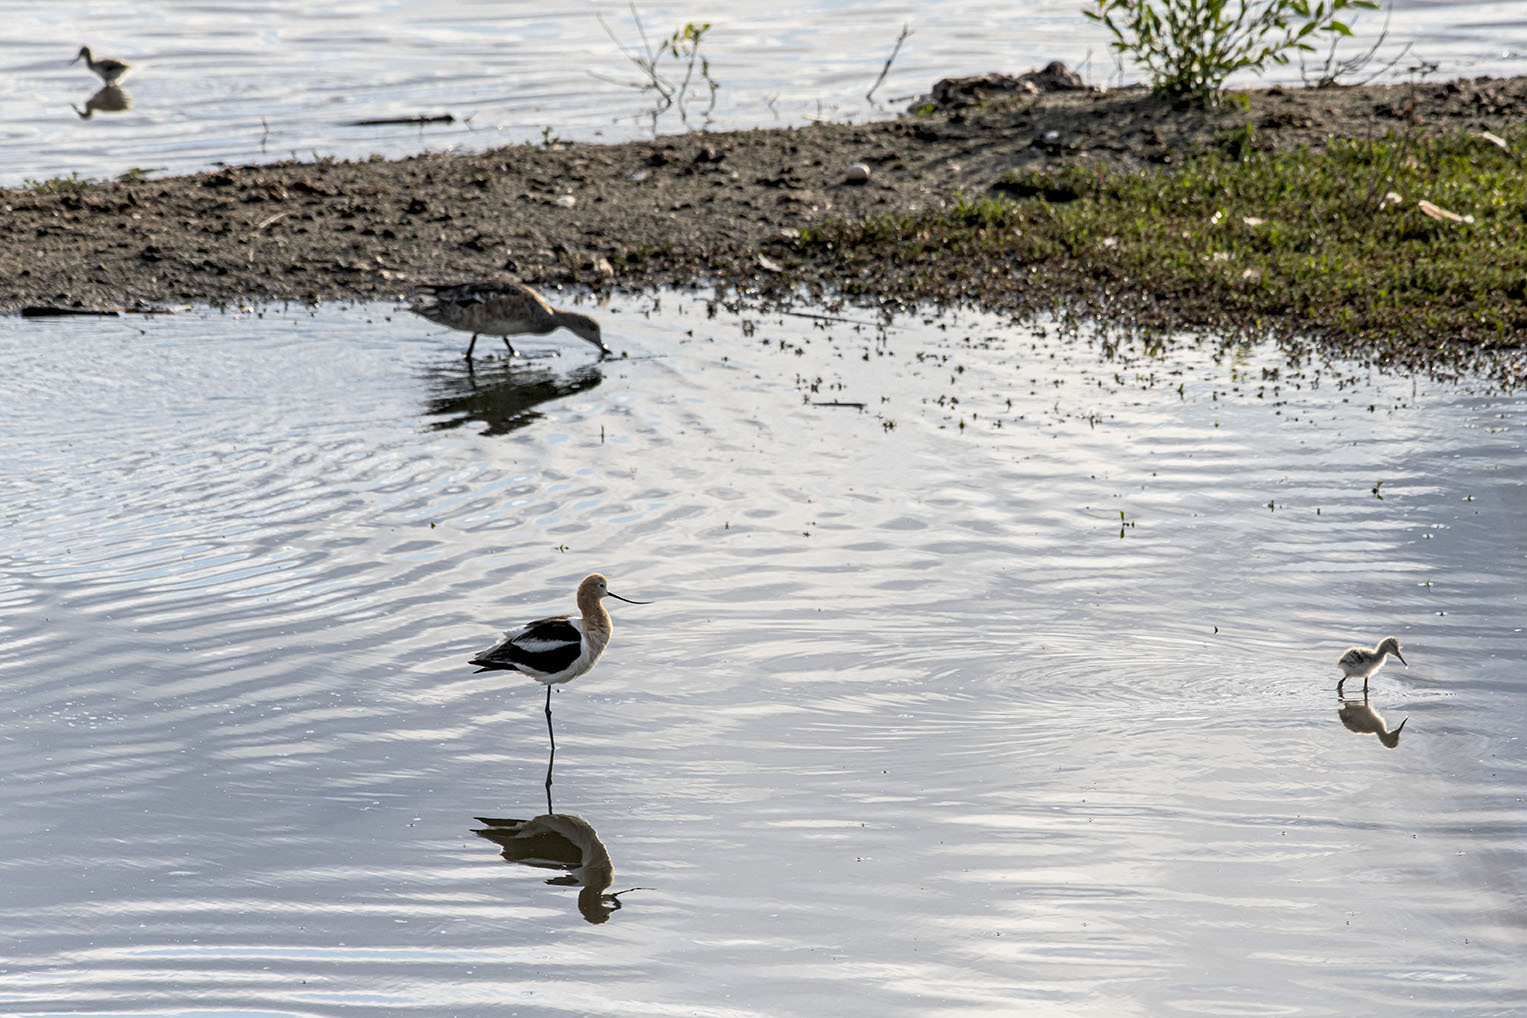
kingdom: Animalia
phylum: Chordata
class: Aves
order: Charadriiformes
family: Recurvirostridae
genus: Recurvirostra
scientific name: Recurvirostra americana
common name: American avocet
